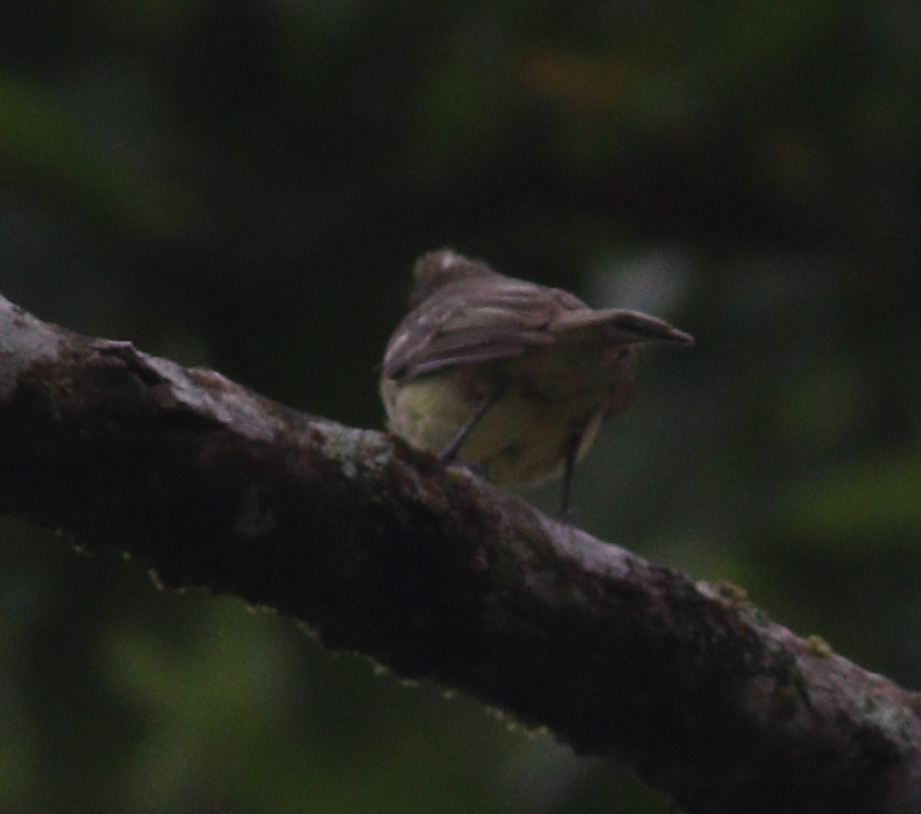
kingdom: Animalia
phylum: Chordata
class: Aves
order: Passeriformes
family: Tyrannidae
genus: Elaenia
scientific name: Elaenia flavogaster
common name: Yellow-bellied elaenia
